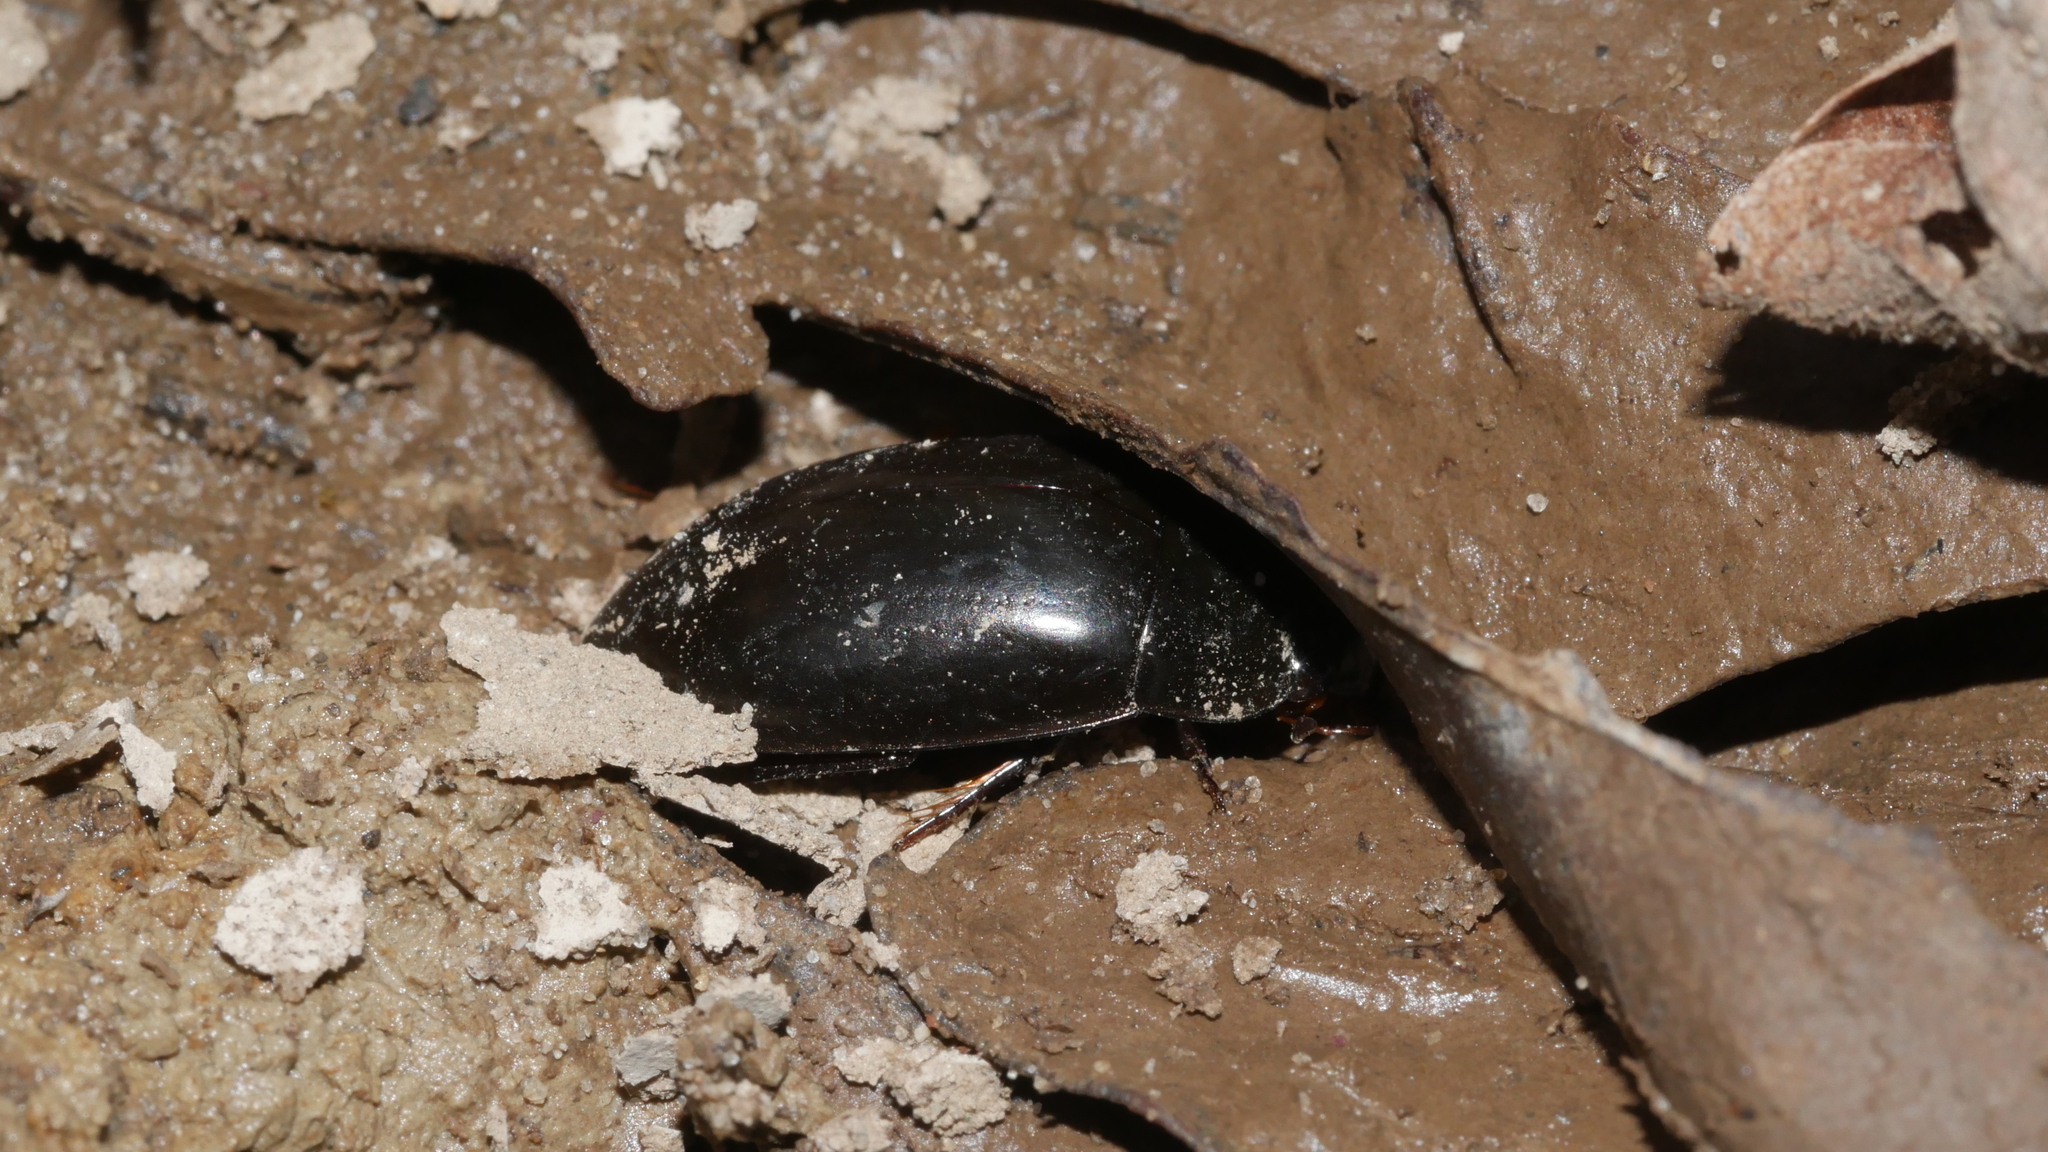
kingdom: Animalia
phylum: Arthropoda
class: Insecta
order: Coleoptera
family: Hydrophilidae
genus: Hydrochara
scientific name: Hydrochara
